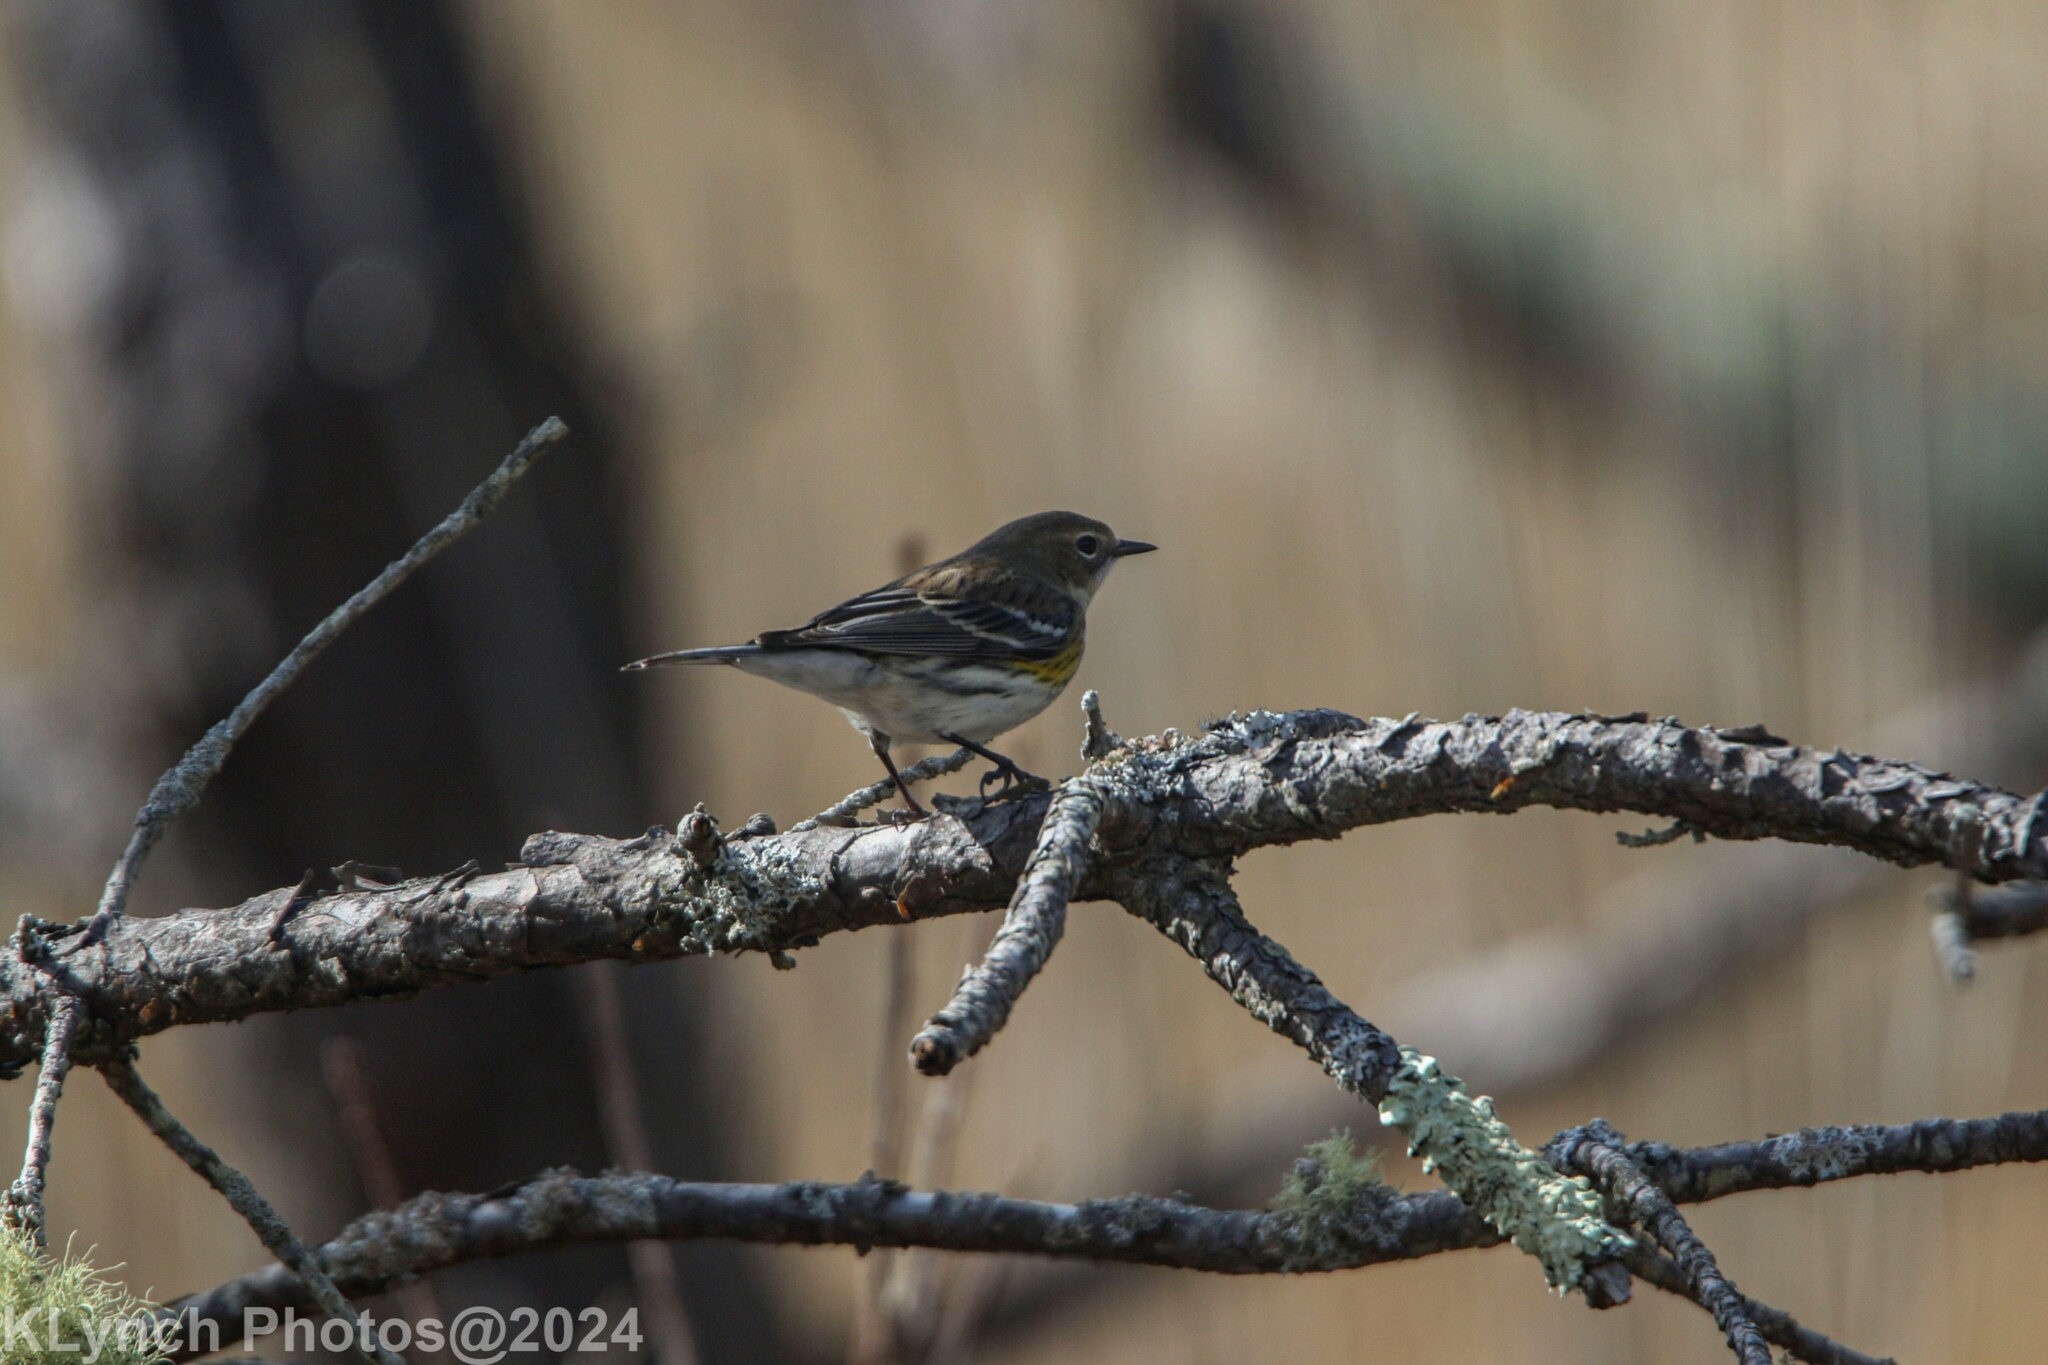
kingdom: Animalia
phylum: Chordata
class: Aves
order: Passeriformes
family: Parulidae
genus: Setophaga
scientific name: Setophaga coronata
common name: Myrtle warbler
